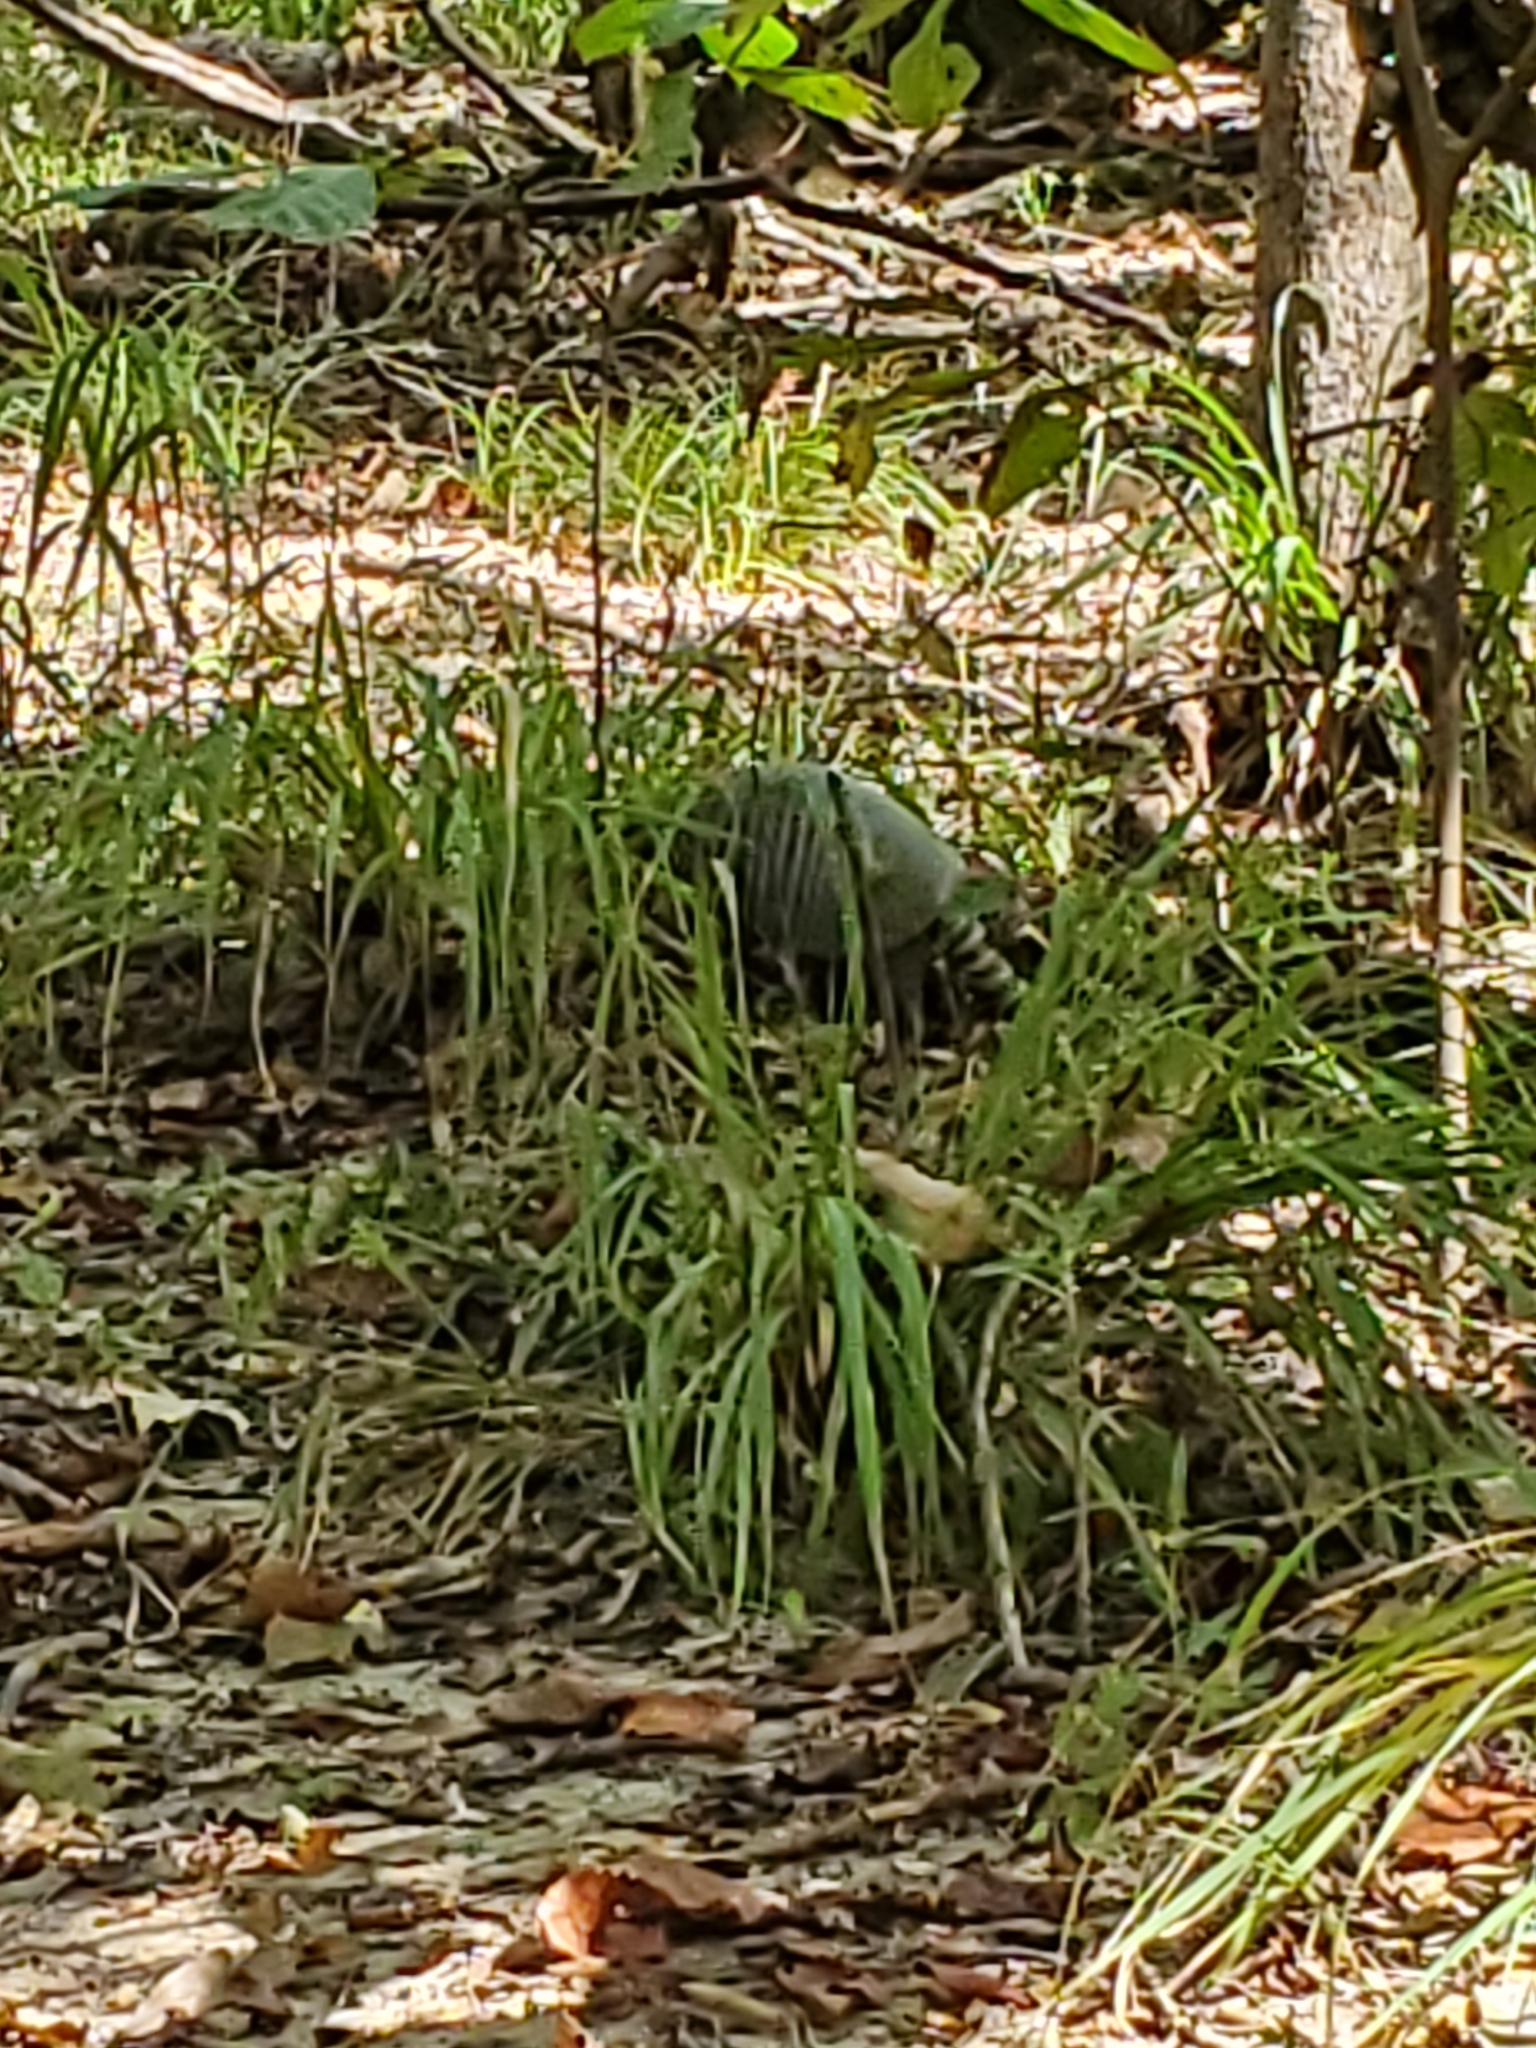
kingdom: Animalia
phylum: Chordata
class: Mammalia
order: Cingulata
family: Dasypodidae
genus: Dasypus
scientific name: Dasypus novemcinctus
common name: Nine-banded armadillo
